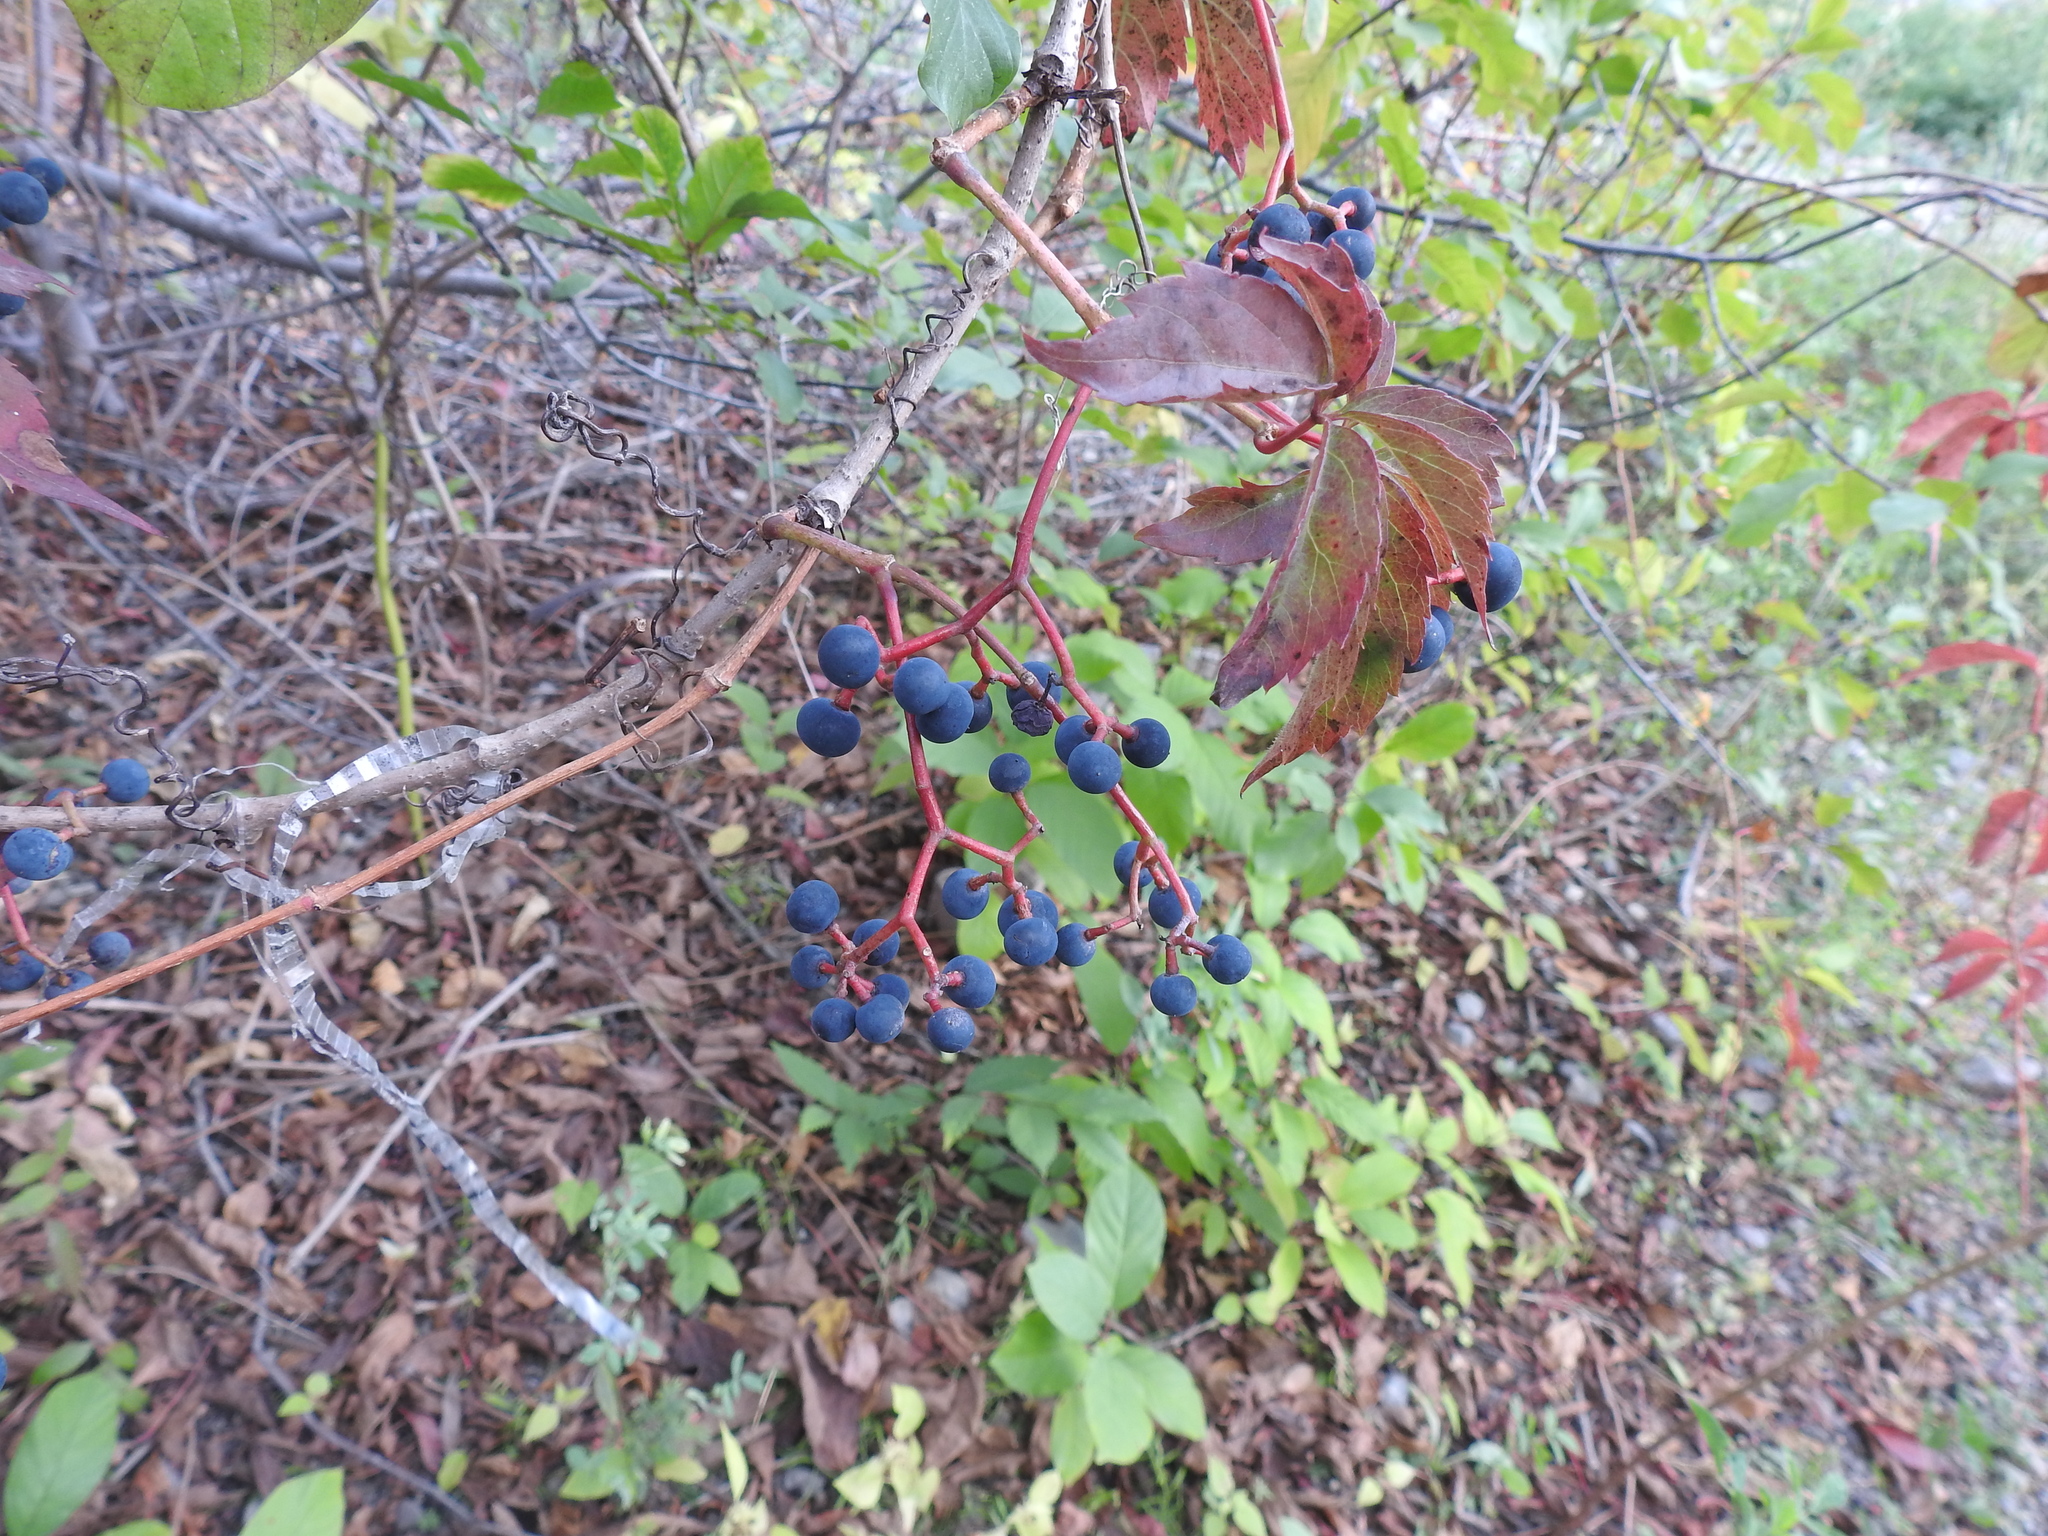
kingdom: Plantae
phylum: Tracheophyta
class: Magnoliopsida
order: Vitales
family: Vitaceae
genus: Parthenocissus
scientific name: Parthenocissus quinquefolia
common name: Virginia-creeper
